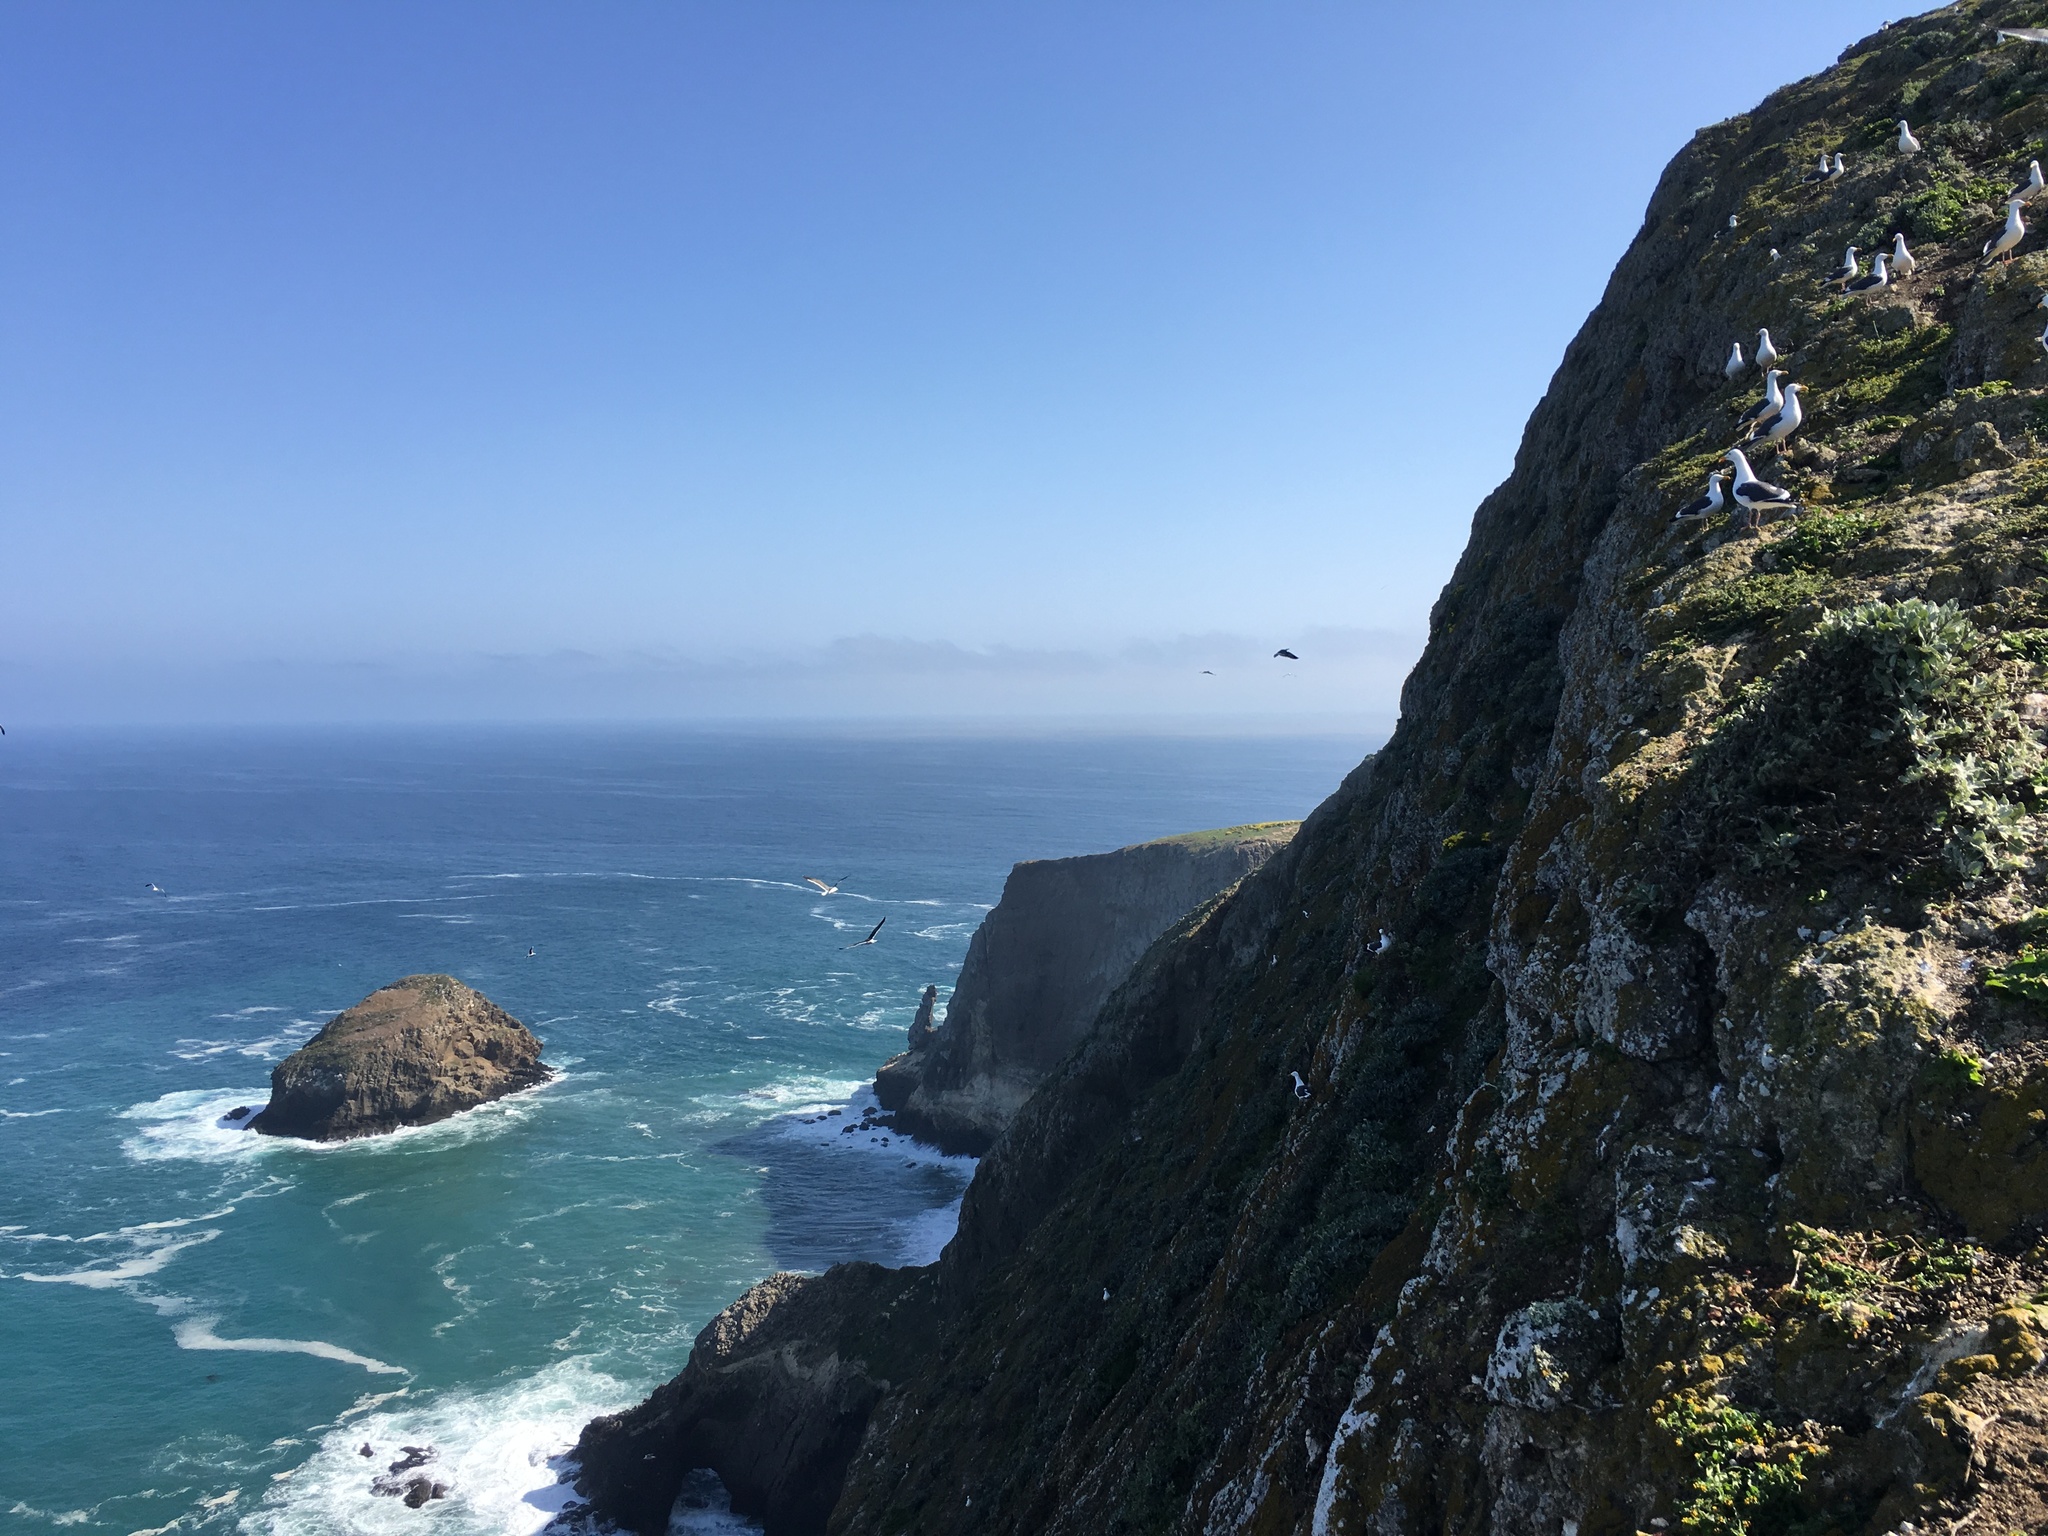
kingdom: Animalia
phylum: Chordata
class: Aves
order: Charadriiformes
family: Laridae
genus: Larus
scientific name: Larus occidentalis
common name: Western gull
